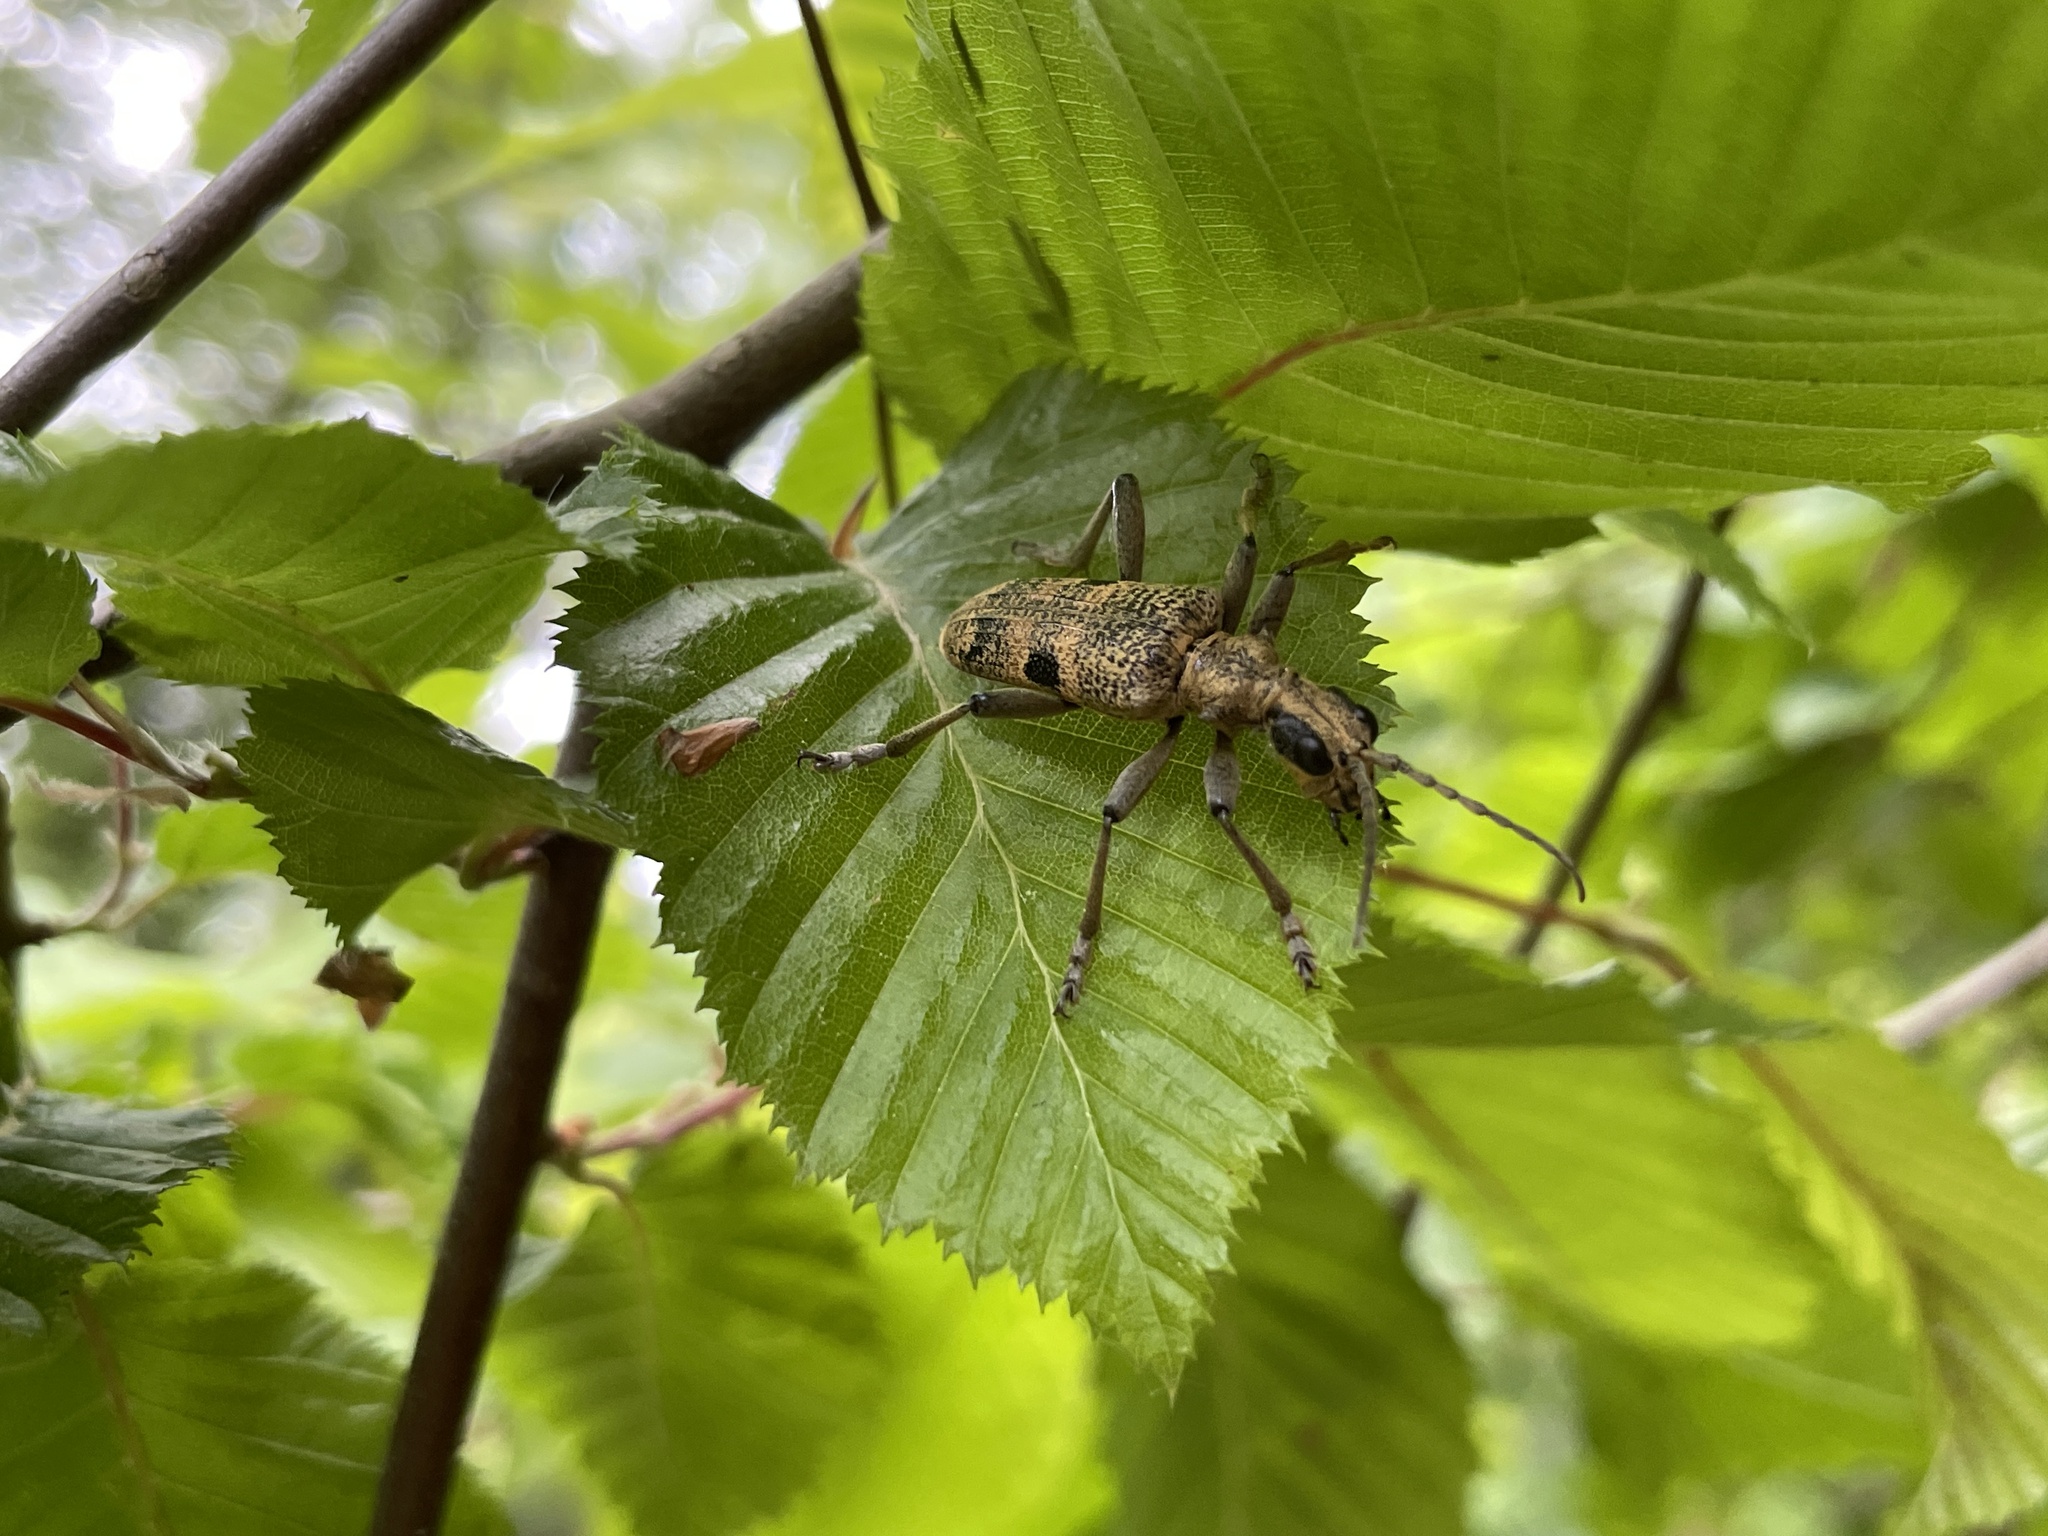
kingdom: Animalia
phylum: Arthropoda
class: Insecta
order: Coleoptera
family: Cerambycidae
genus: Rhagium
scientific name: Rhagium mordax
